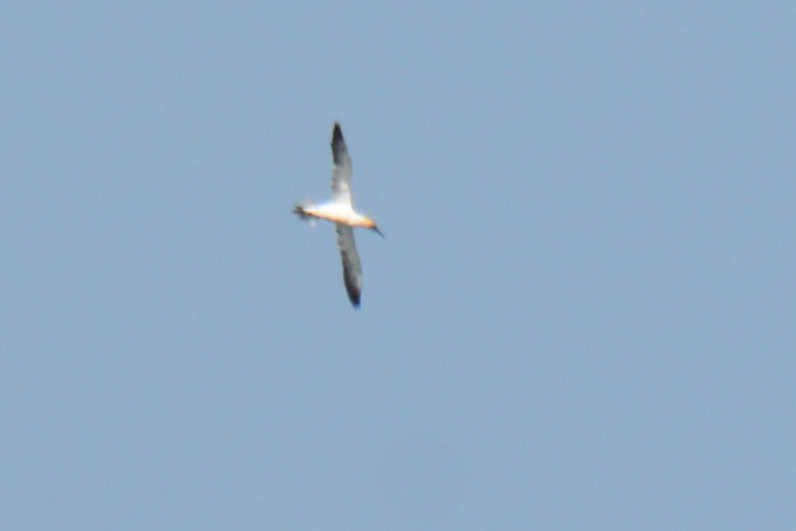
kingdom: Animalia
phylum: Chordata
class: Aves
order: Suliformes
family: Sulidae
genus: Morus
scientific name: Morus bassanus
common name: Northern gannet
